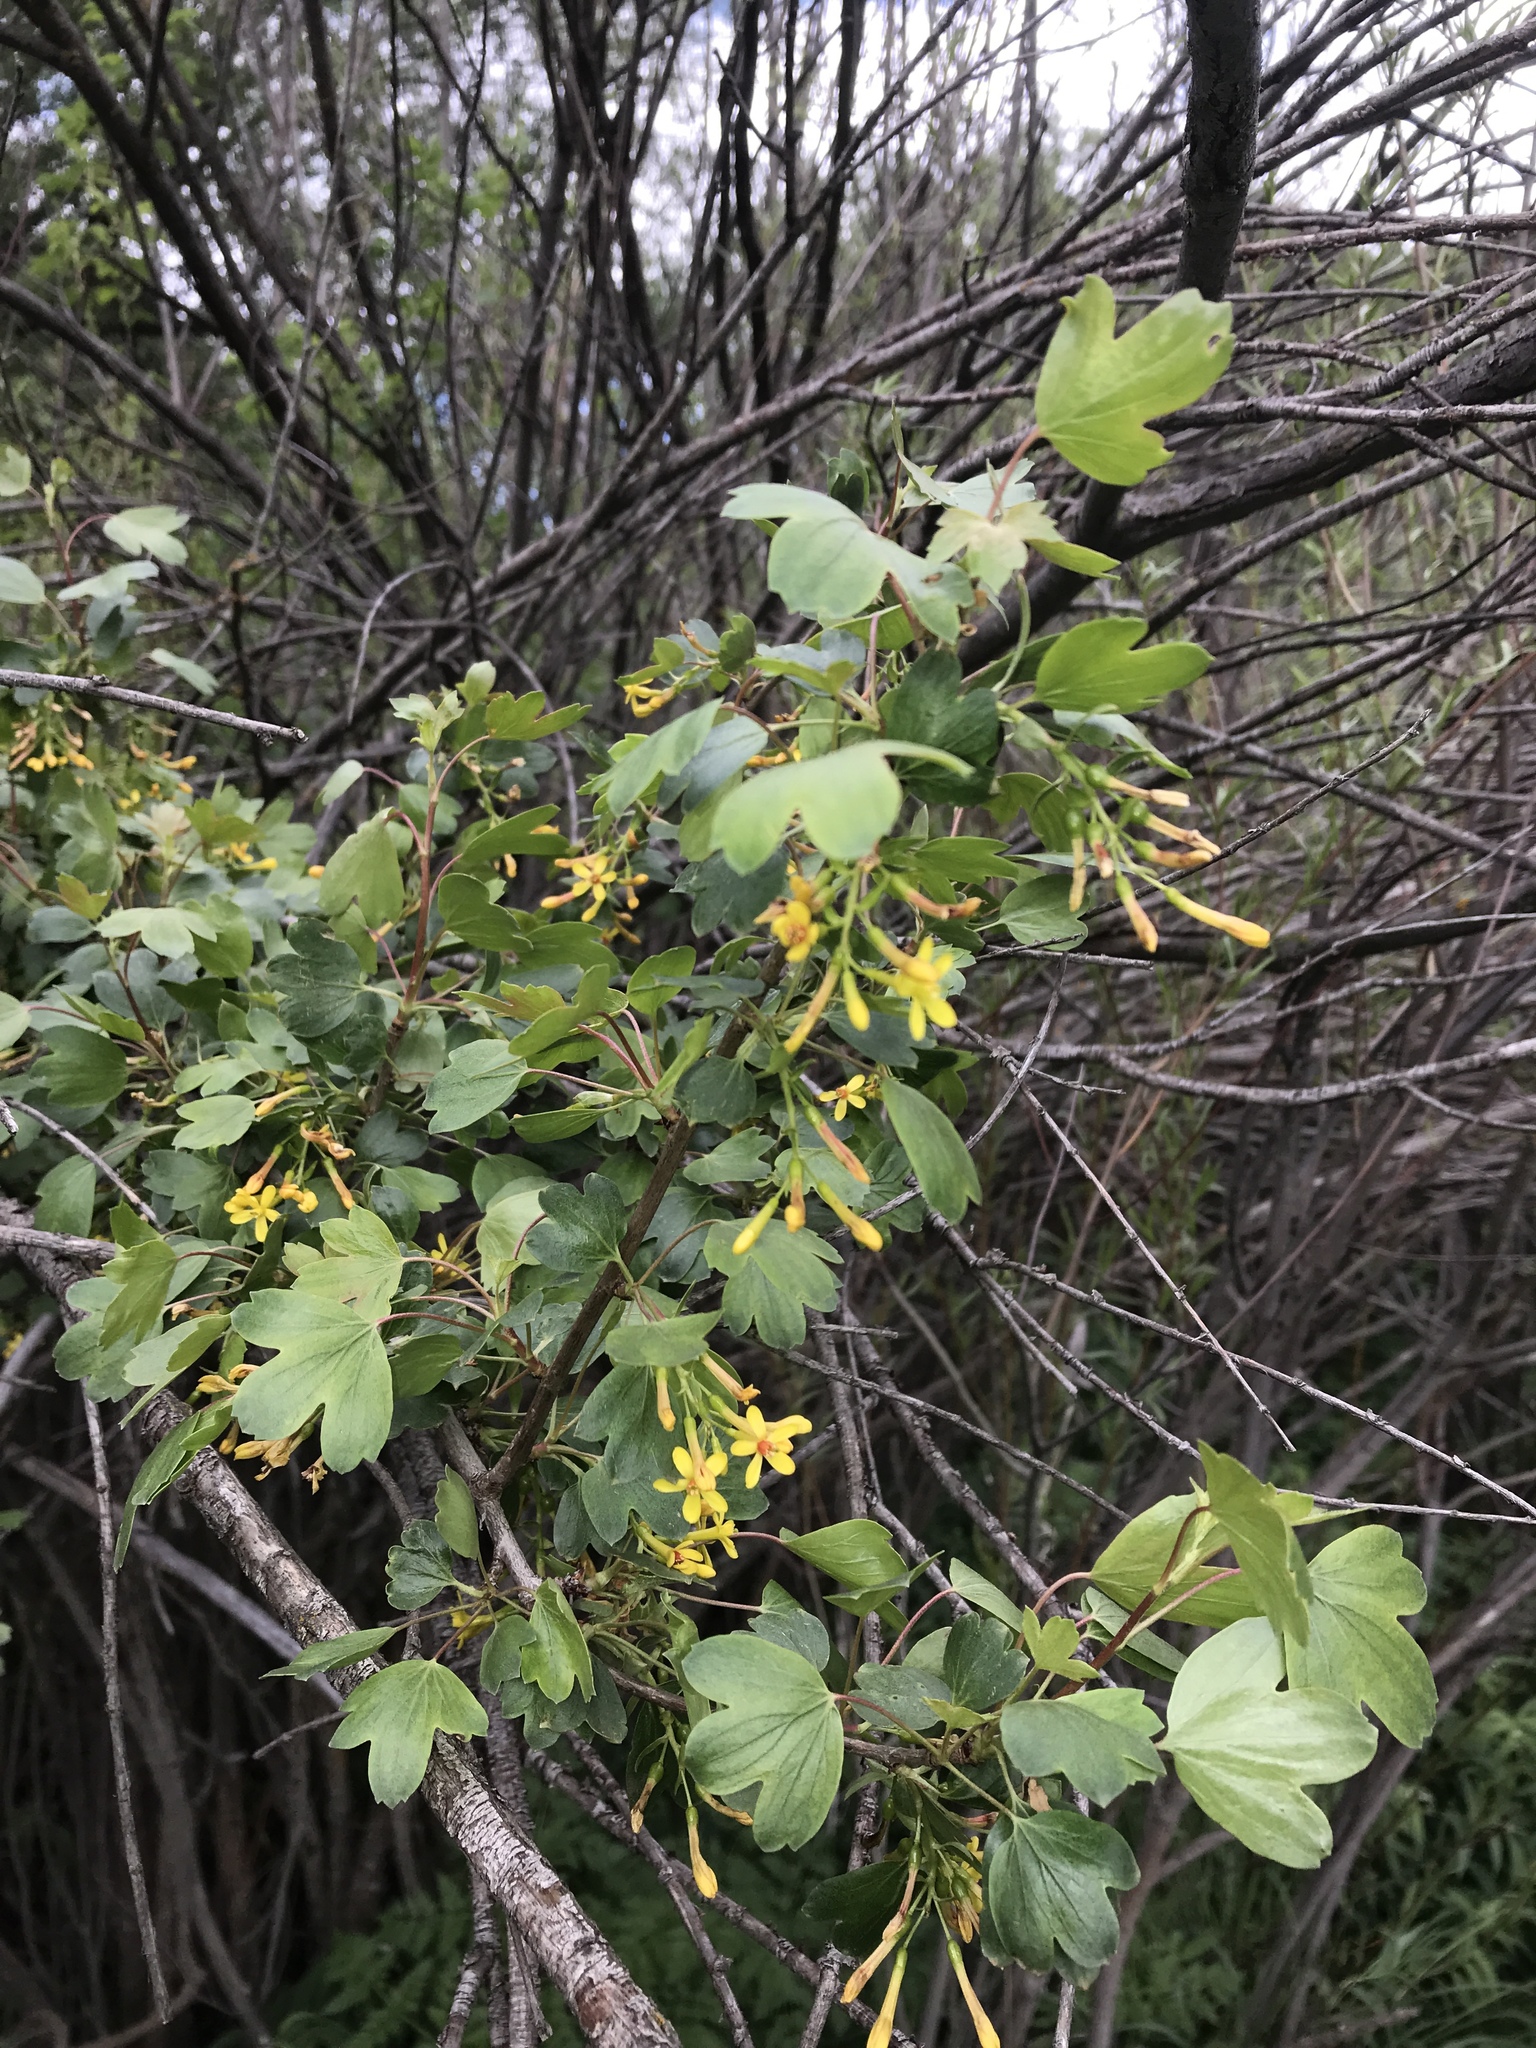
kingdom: Plantae
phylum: Tracheophyta
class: Magnoliopsida
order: Saxifragales
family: Grossulariaceae
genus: Ribes
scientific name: Ribes aureum
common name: Golden currant
